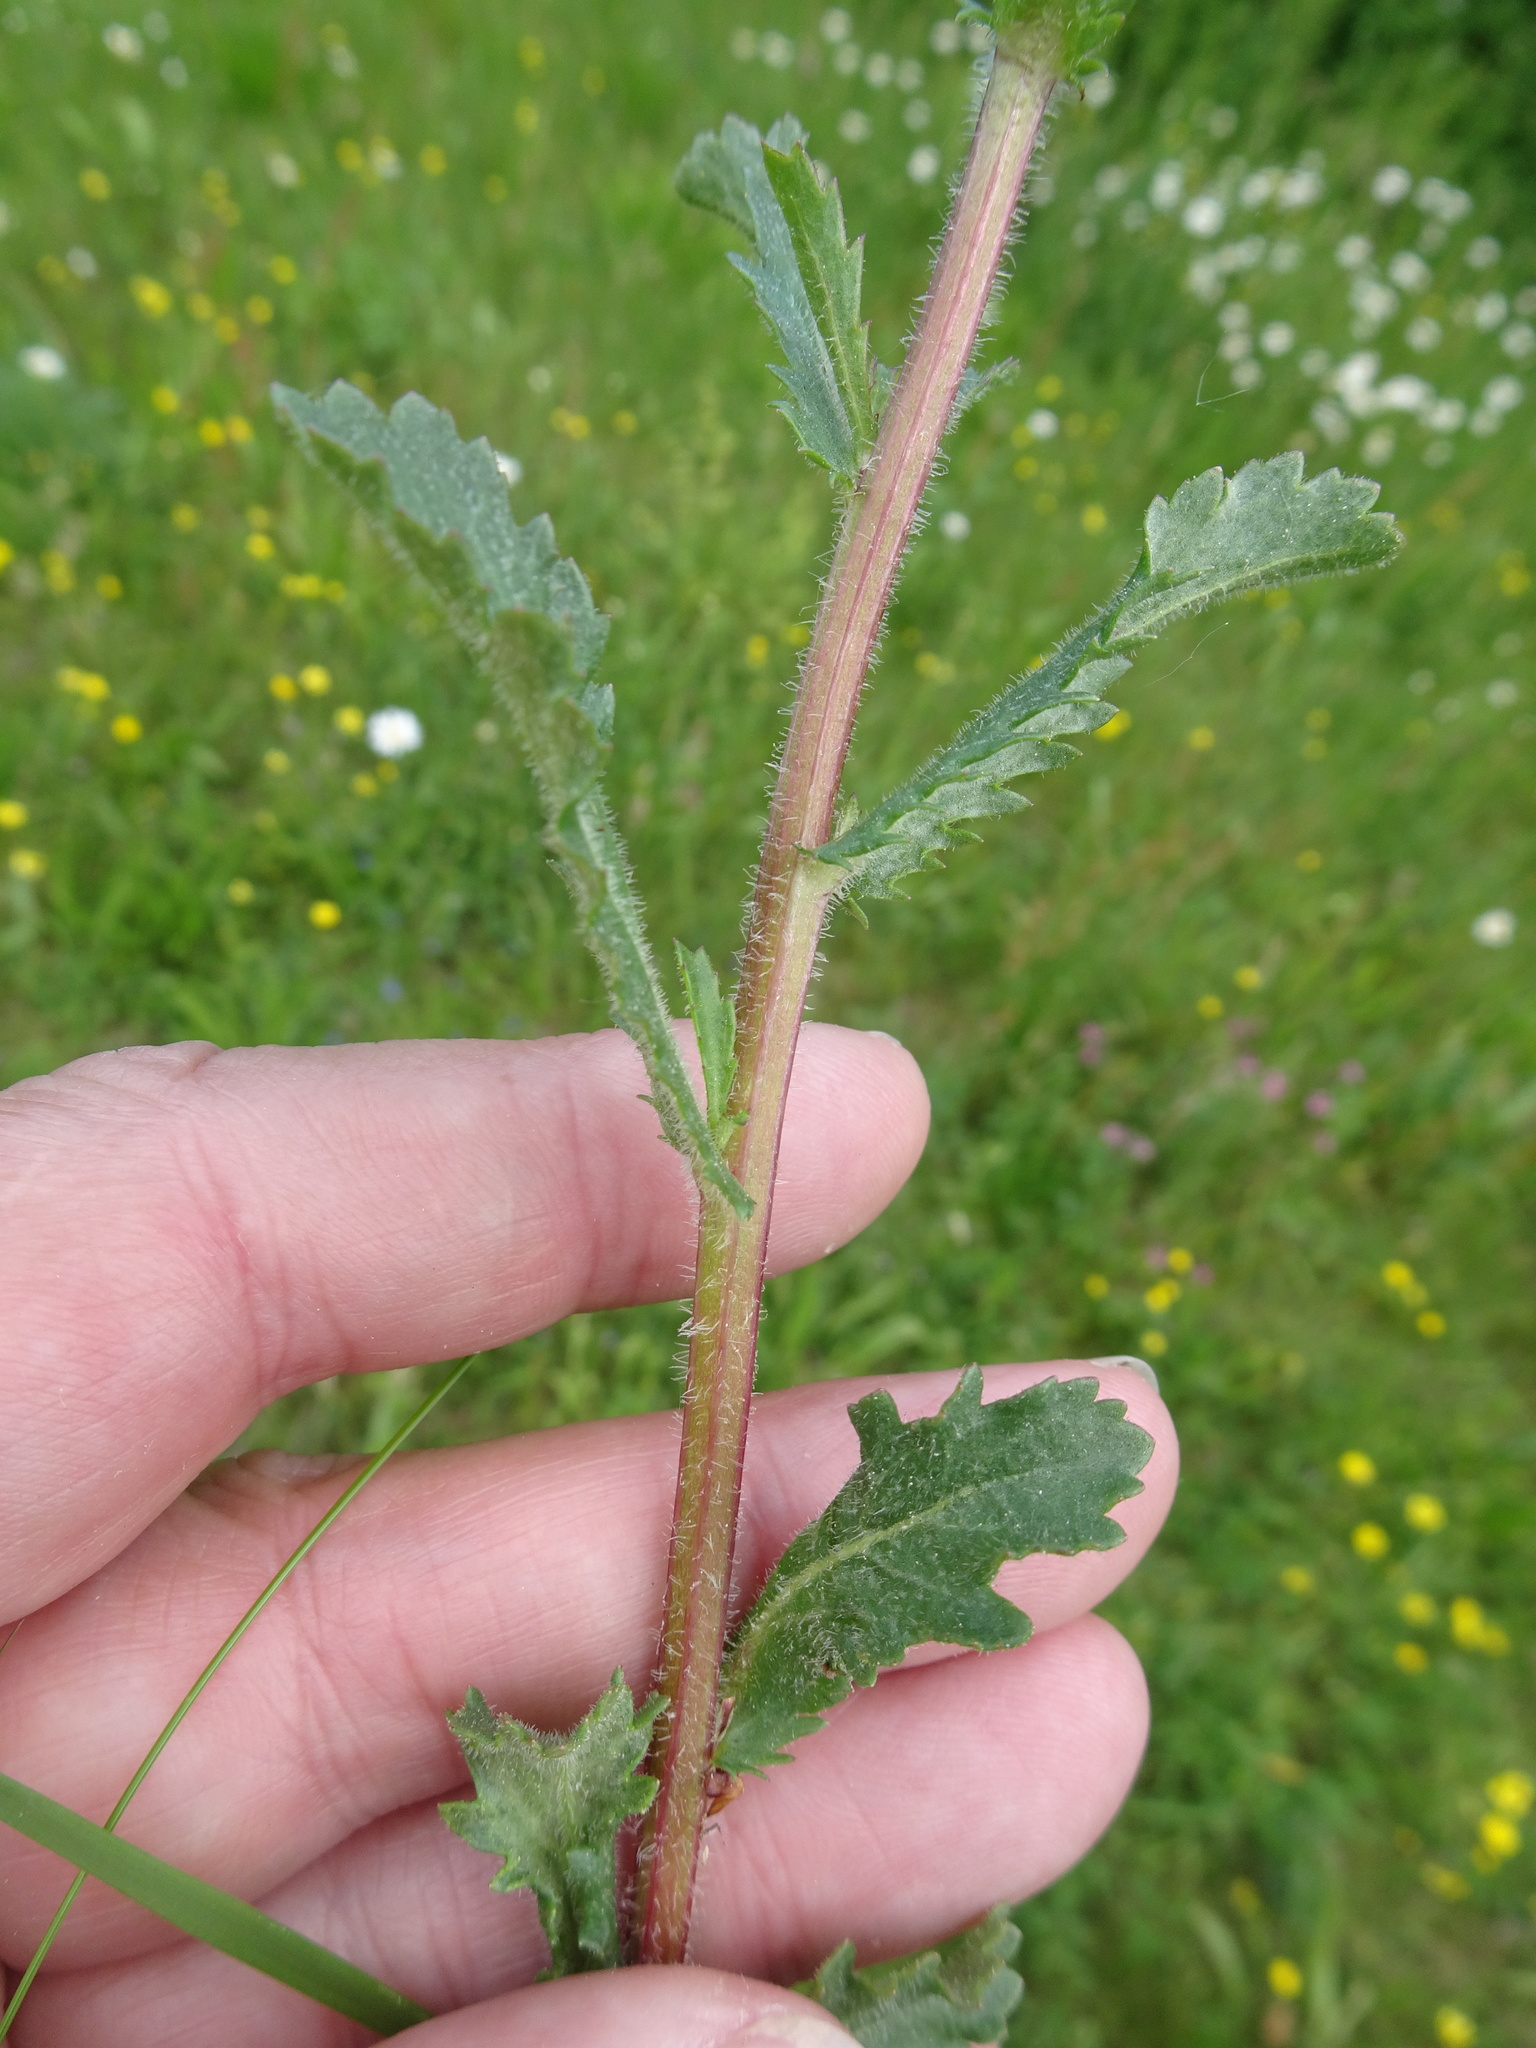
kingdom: Plantae
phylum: Tracheophyta
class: Magnoliopsida
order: Asterales
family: Asteraceae
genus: Leucanthemum
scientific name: Leucanthemum vulgare
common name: Oxeye daisy
